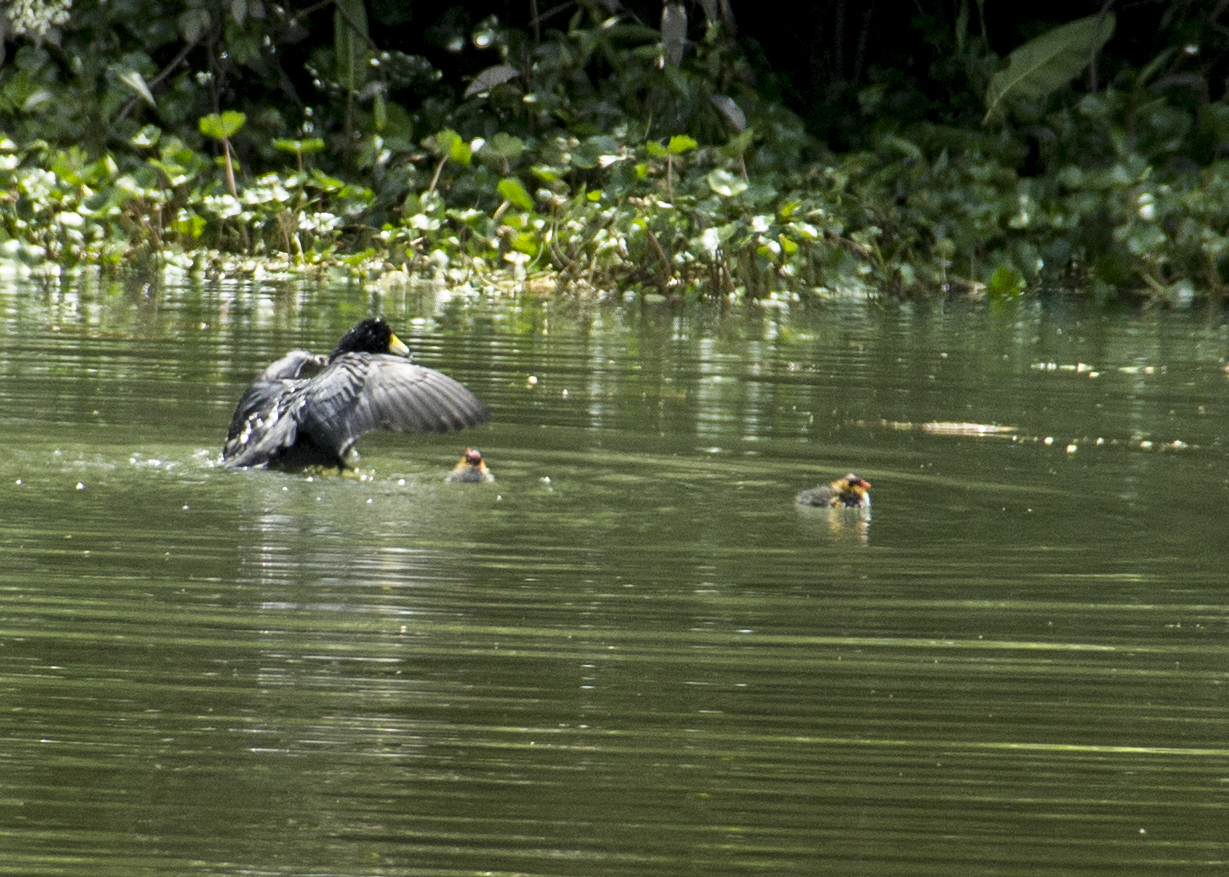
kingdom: Animalia
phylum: Chordata
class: Aves
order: Gruiformes
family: Rallidae
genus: Fulica
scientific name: Fulica americana
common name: American coot
